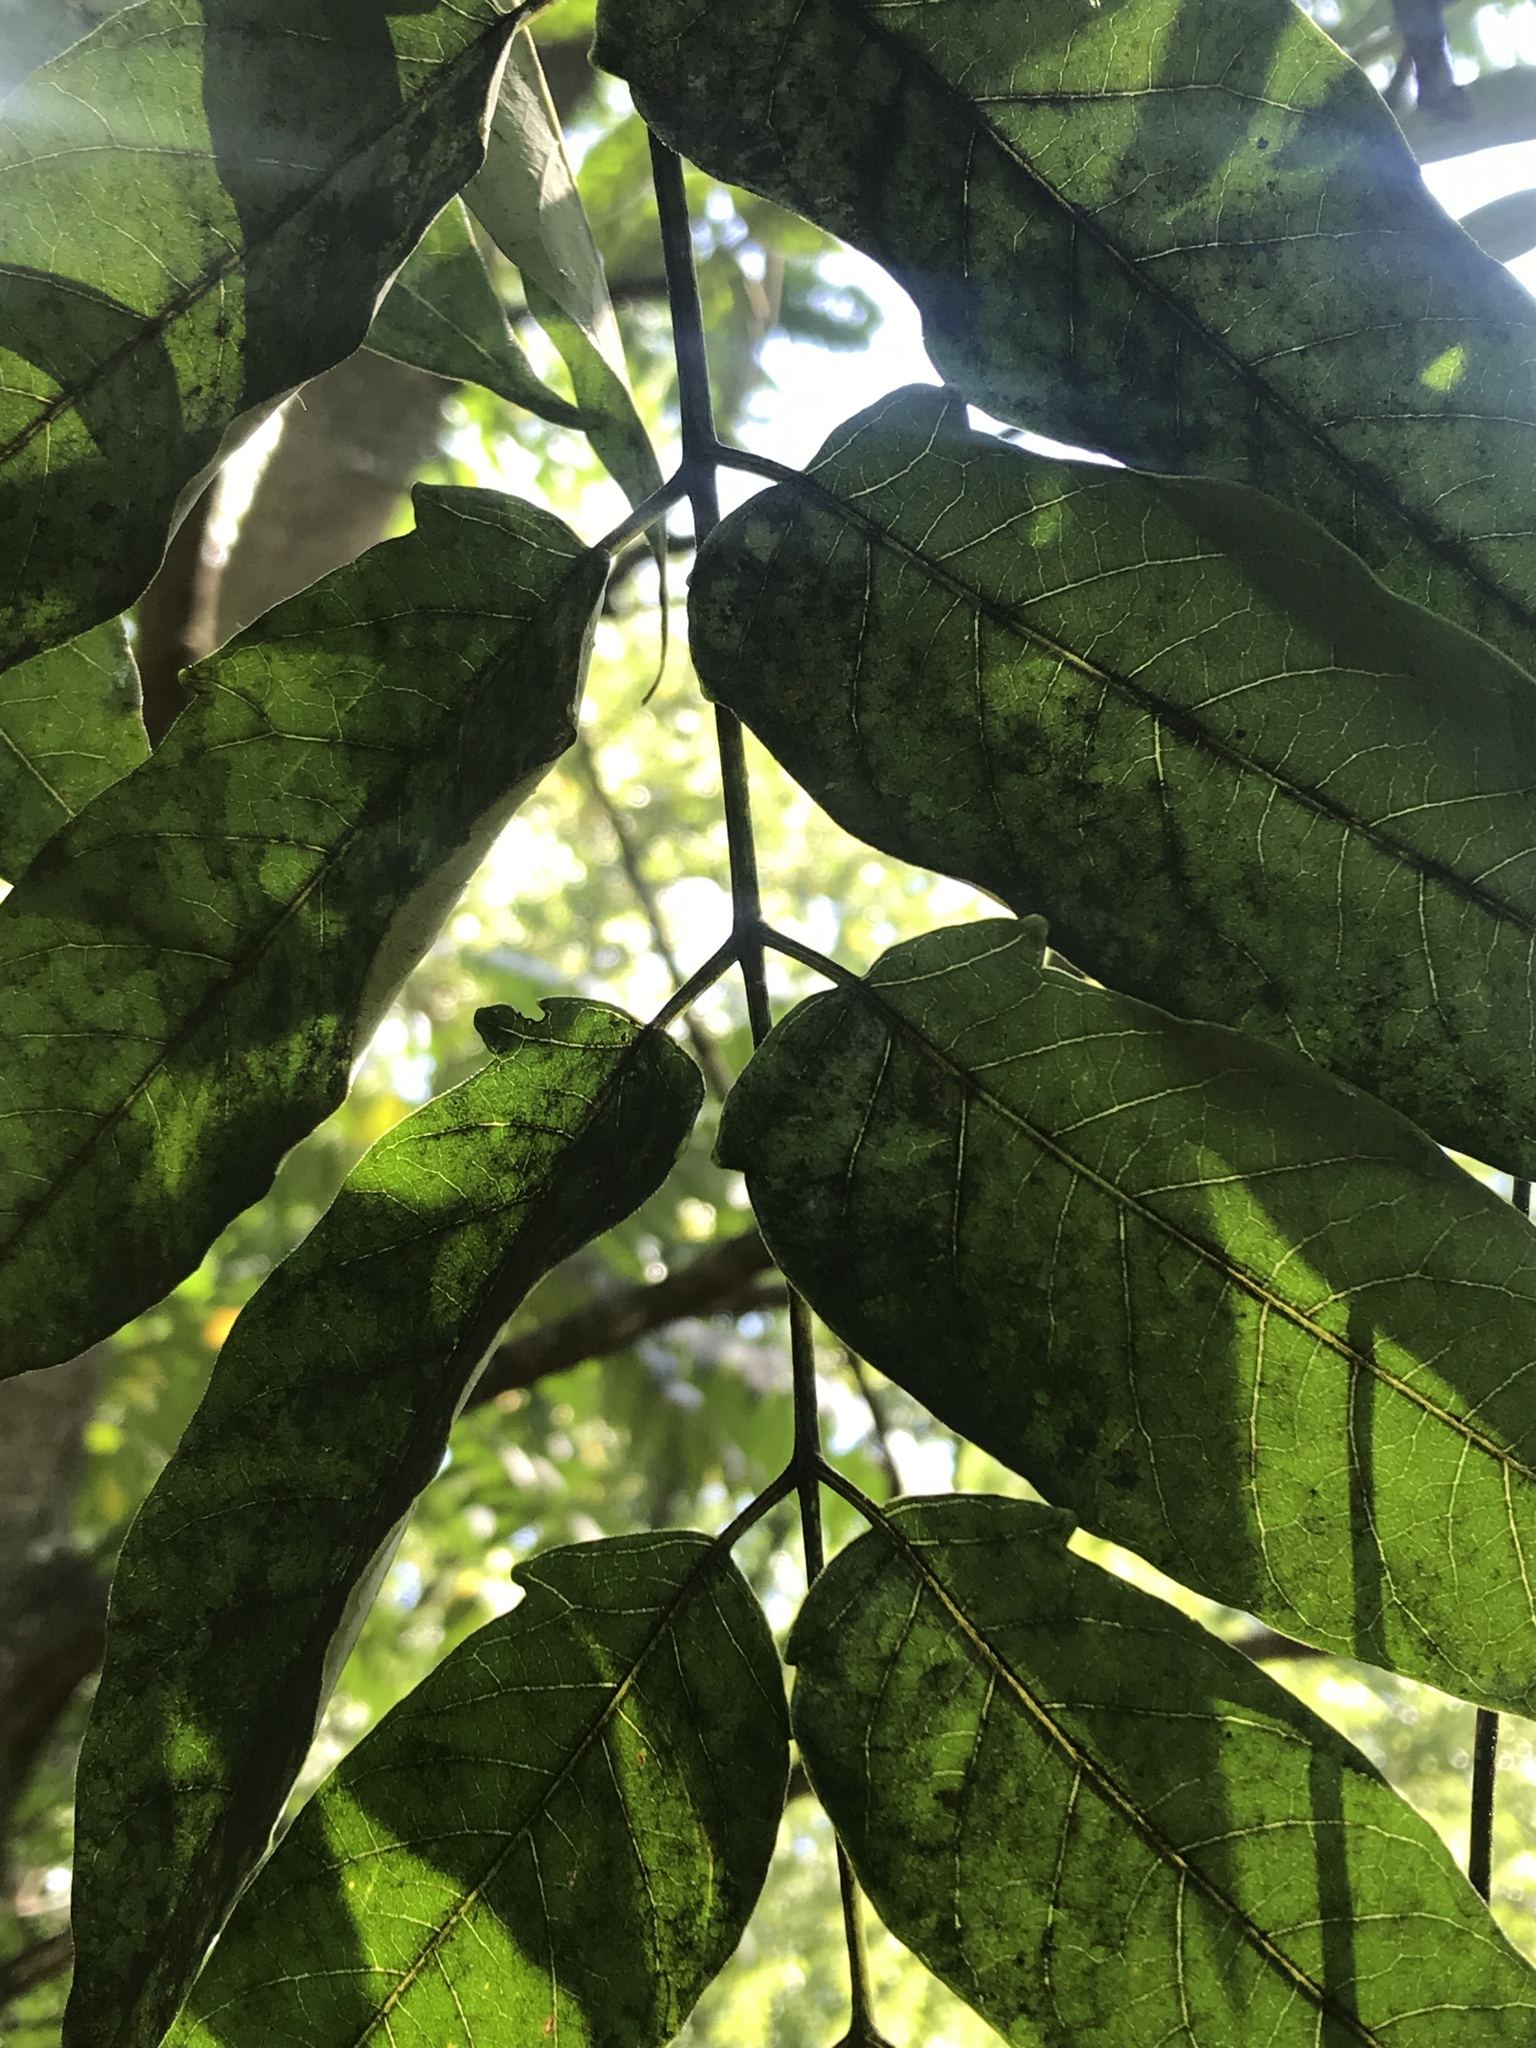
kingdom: Plantae
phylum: Tracheophyta
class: Magnoliopsida
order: Sapindales
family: Simaroubaceae
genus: Ailanthus
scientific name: Ailanthus altissima
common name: Tree-of-heaven
